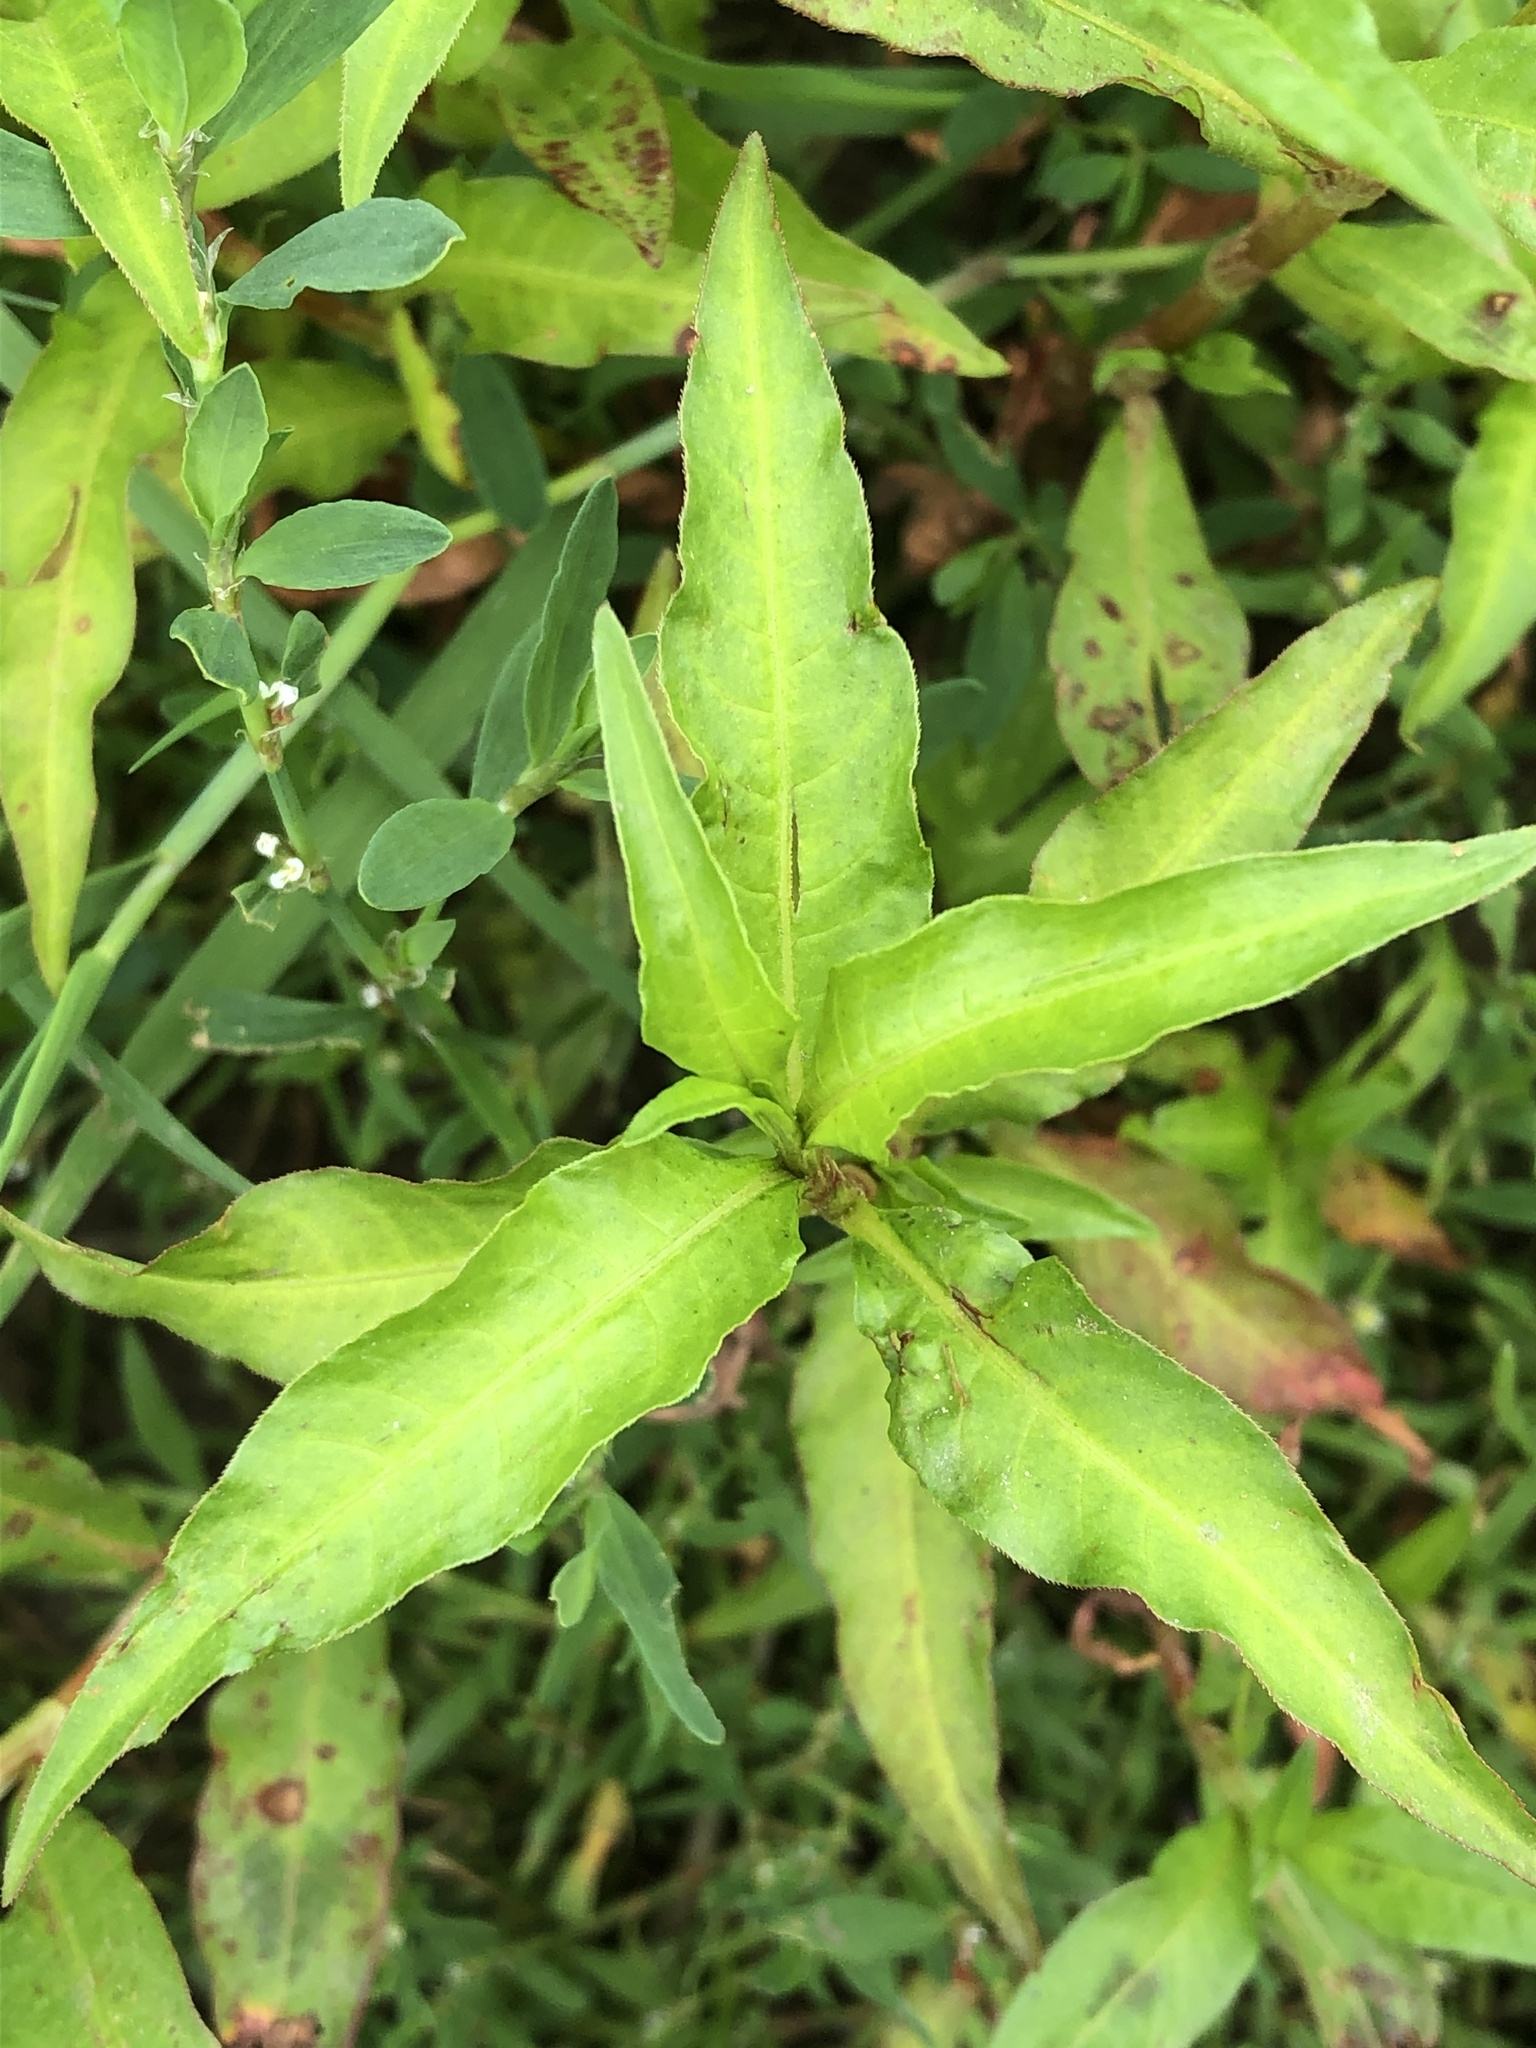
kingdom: Plantae
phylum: Tracheophyta
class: Magnoliopsida
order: Caryophyllales
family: Polygonaceae
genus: Persicaria
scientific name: Persicaria maculosa
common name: Redshank
